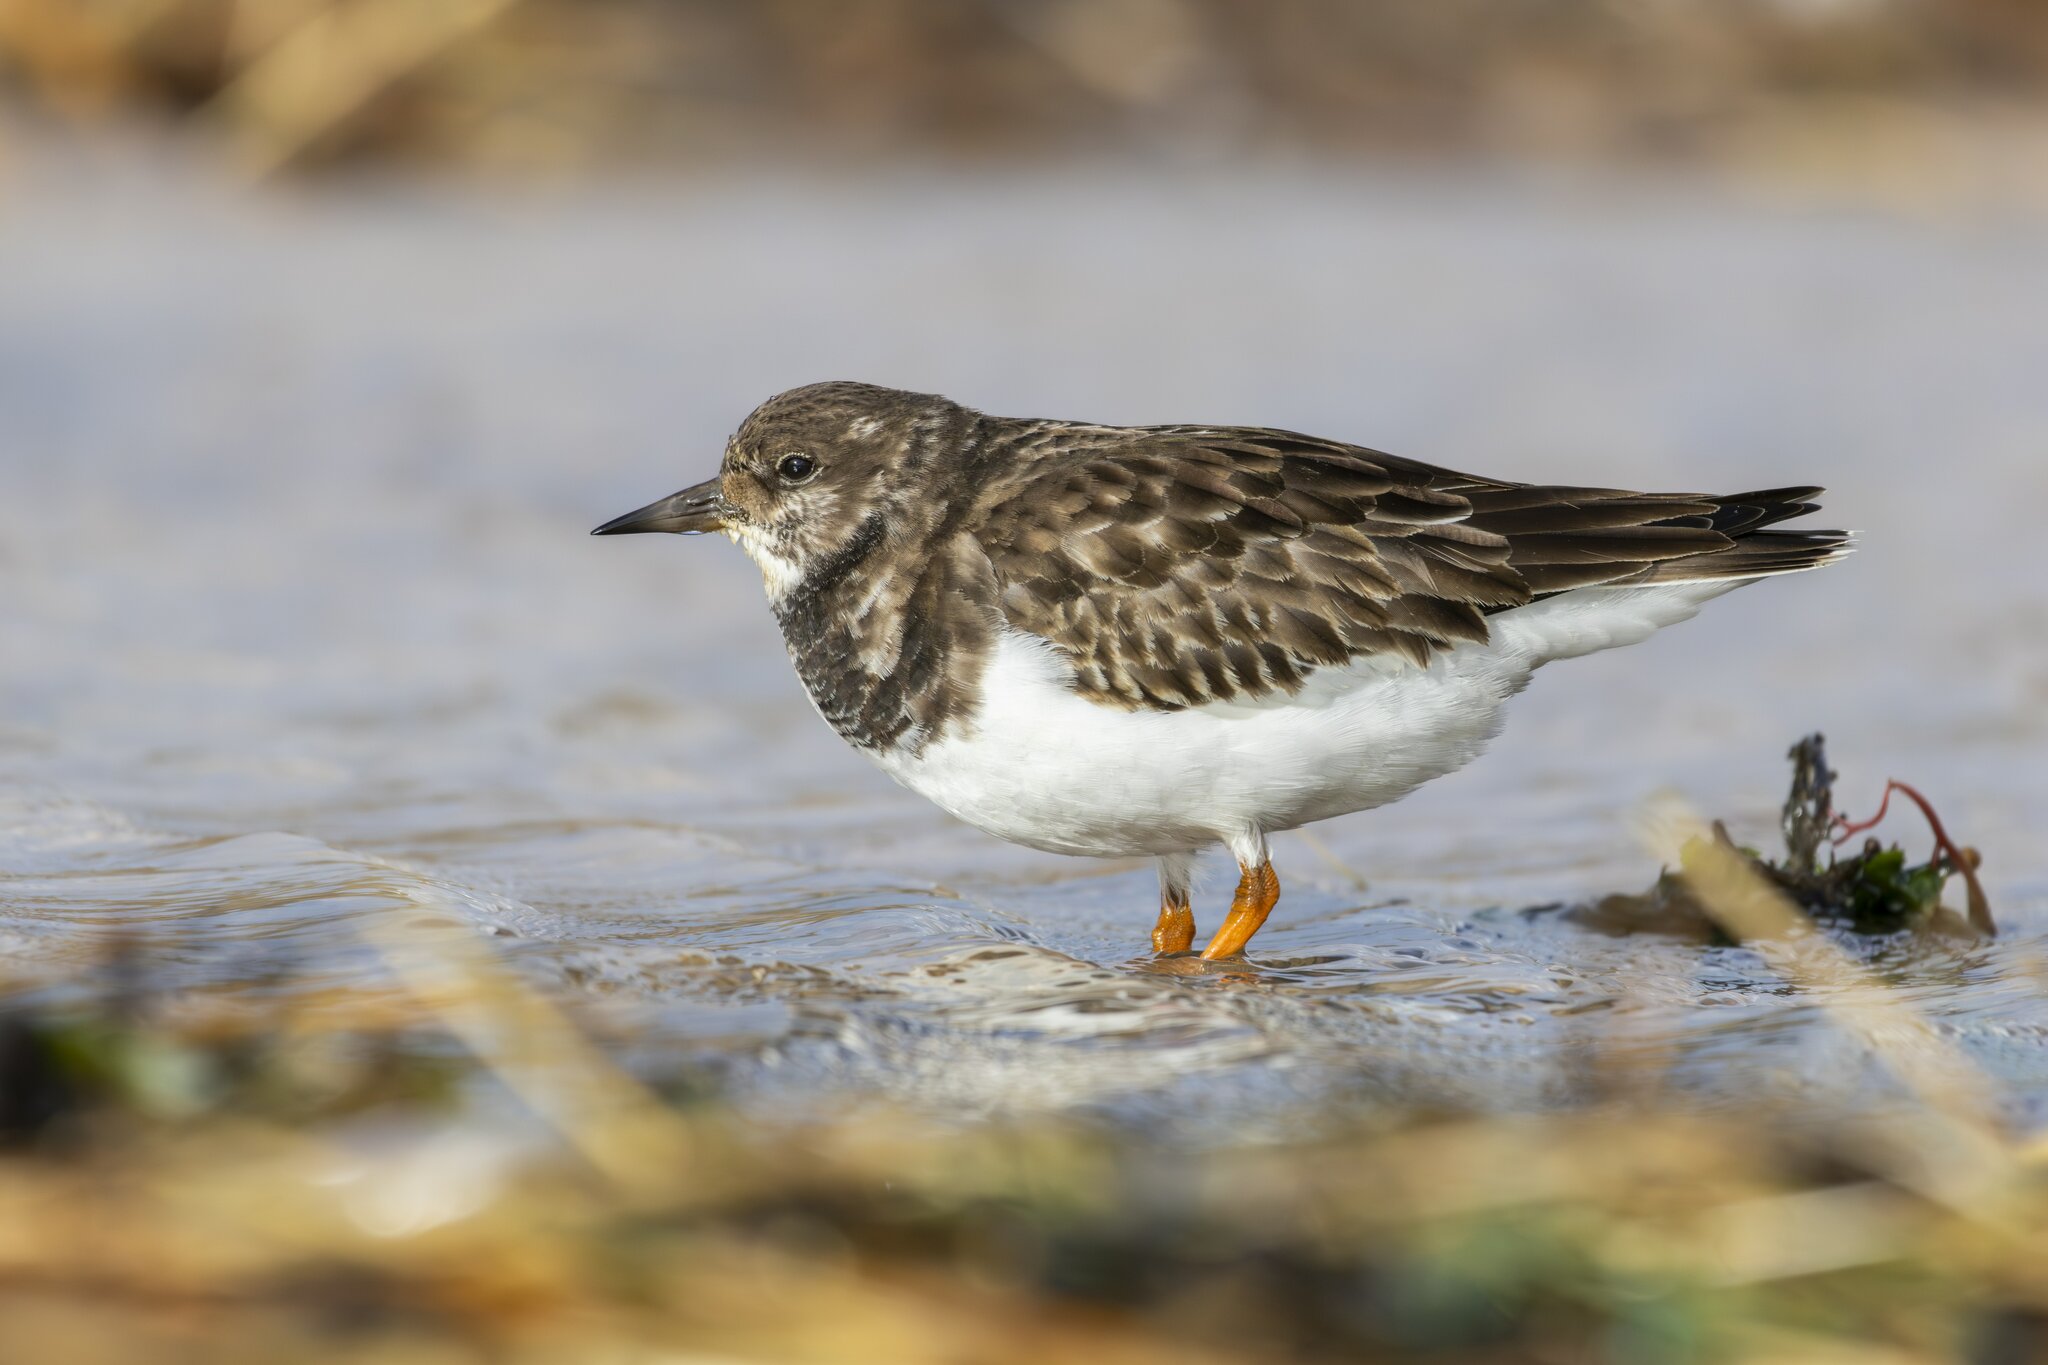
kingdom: Animalia
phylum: Chordata
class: Aves
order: Charadriiformes
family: Scolopacidae
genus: Arenaria
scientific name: Arenaria interpres
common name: Ruddy turnstone
